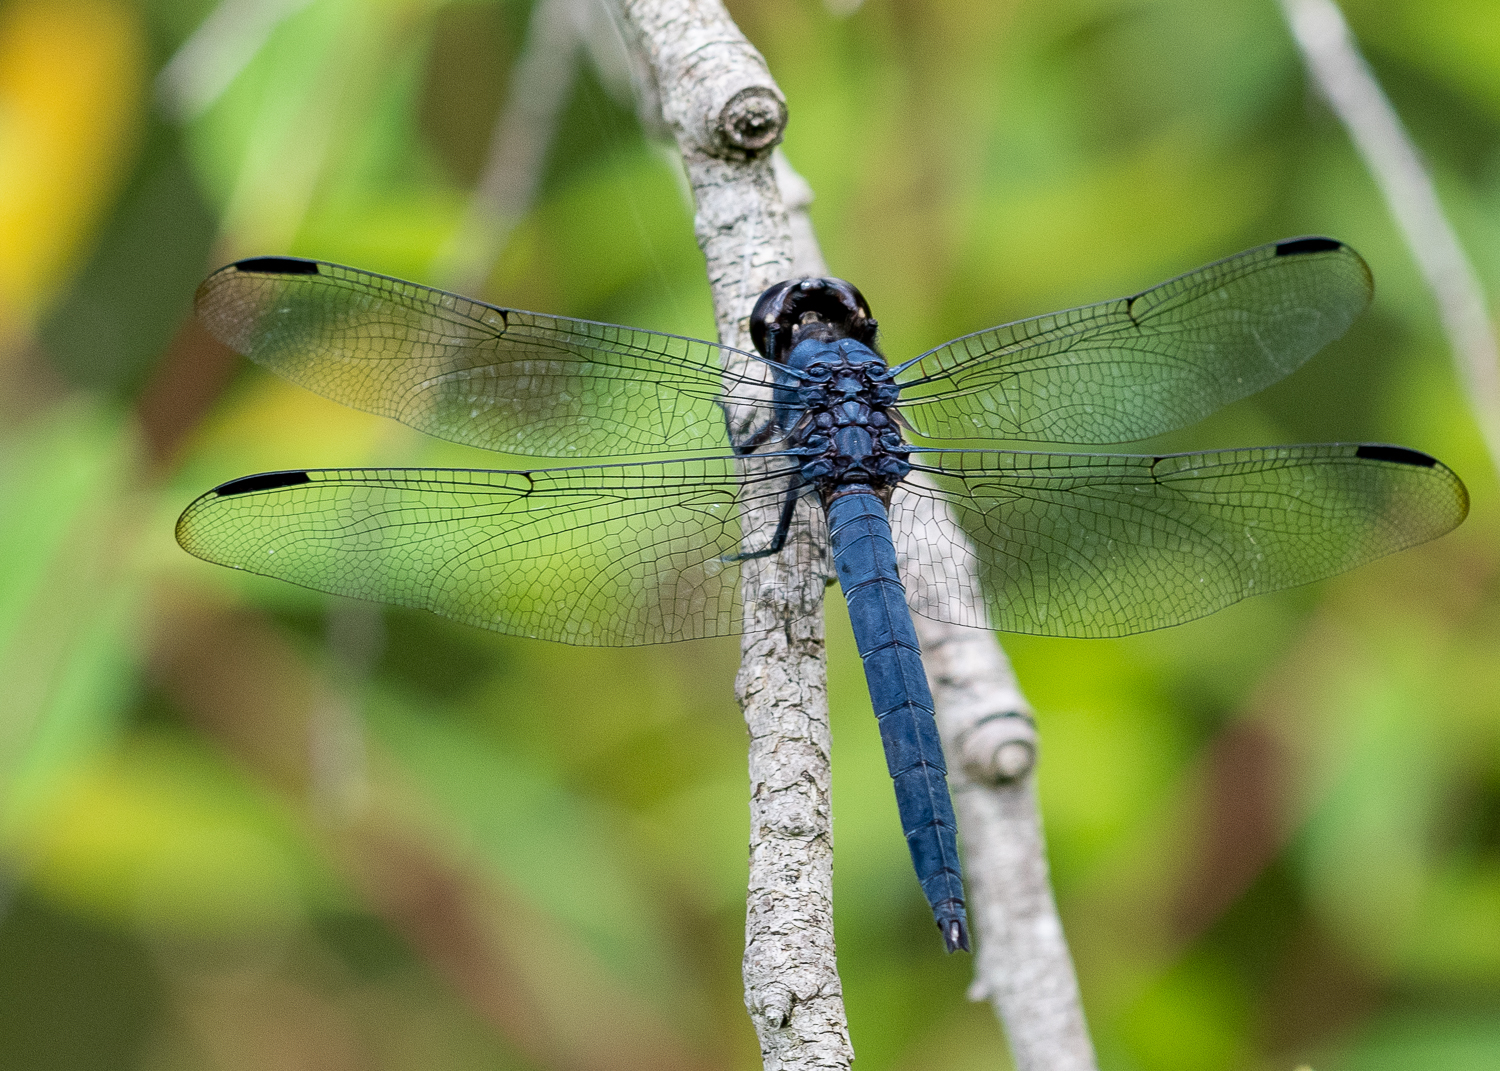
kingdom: Animalia
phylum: Arthropoda
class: Insecta
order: Odonata
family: Libellulidae
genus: Libellula
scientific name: Libellula incesta
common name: Slaty skimmer
